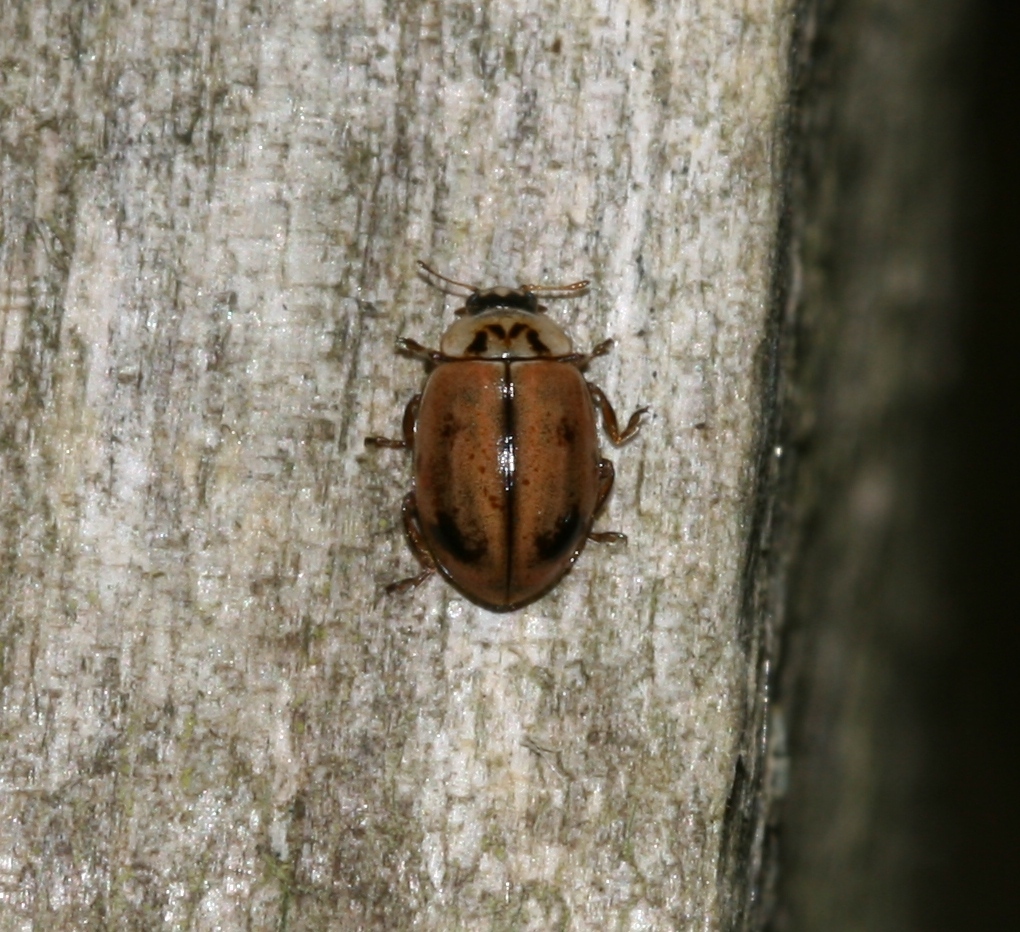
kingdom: Animalia
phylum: Arthropoda
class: Insecta
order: Coleoptera
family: Coccinellidae
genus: Aphidecta
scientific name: Aphidecta obliterata
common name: Larch ladybird
